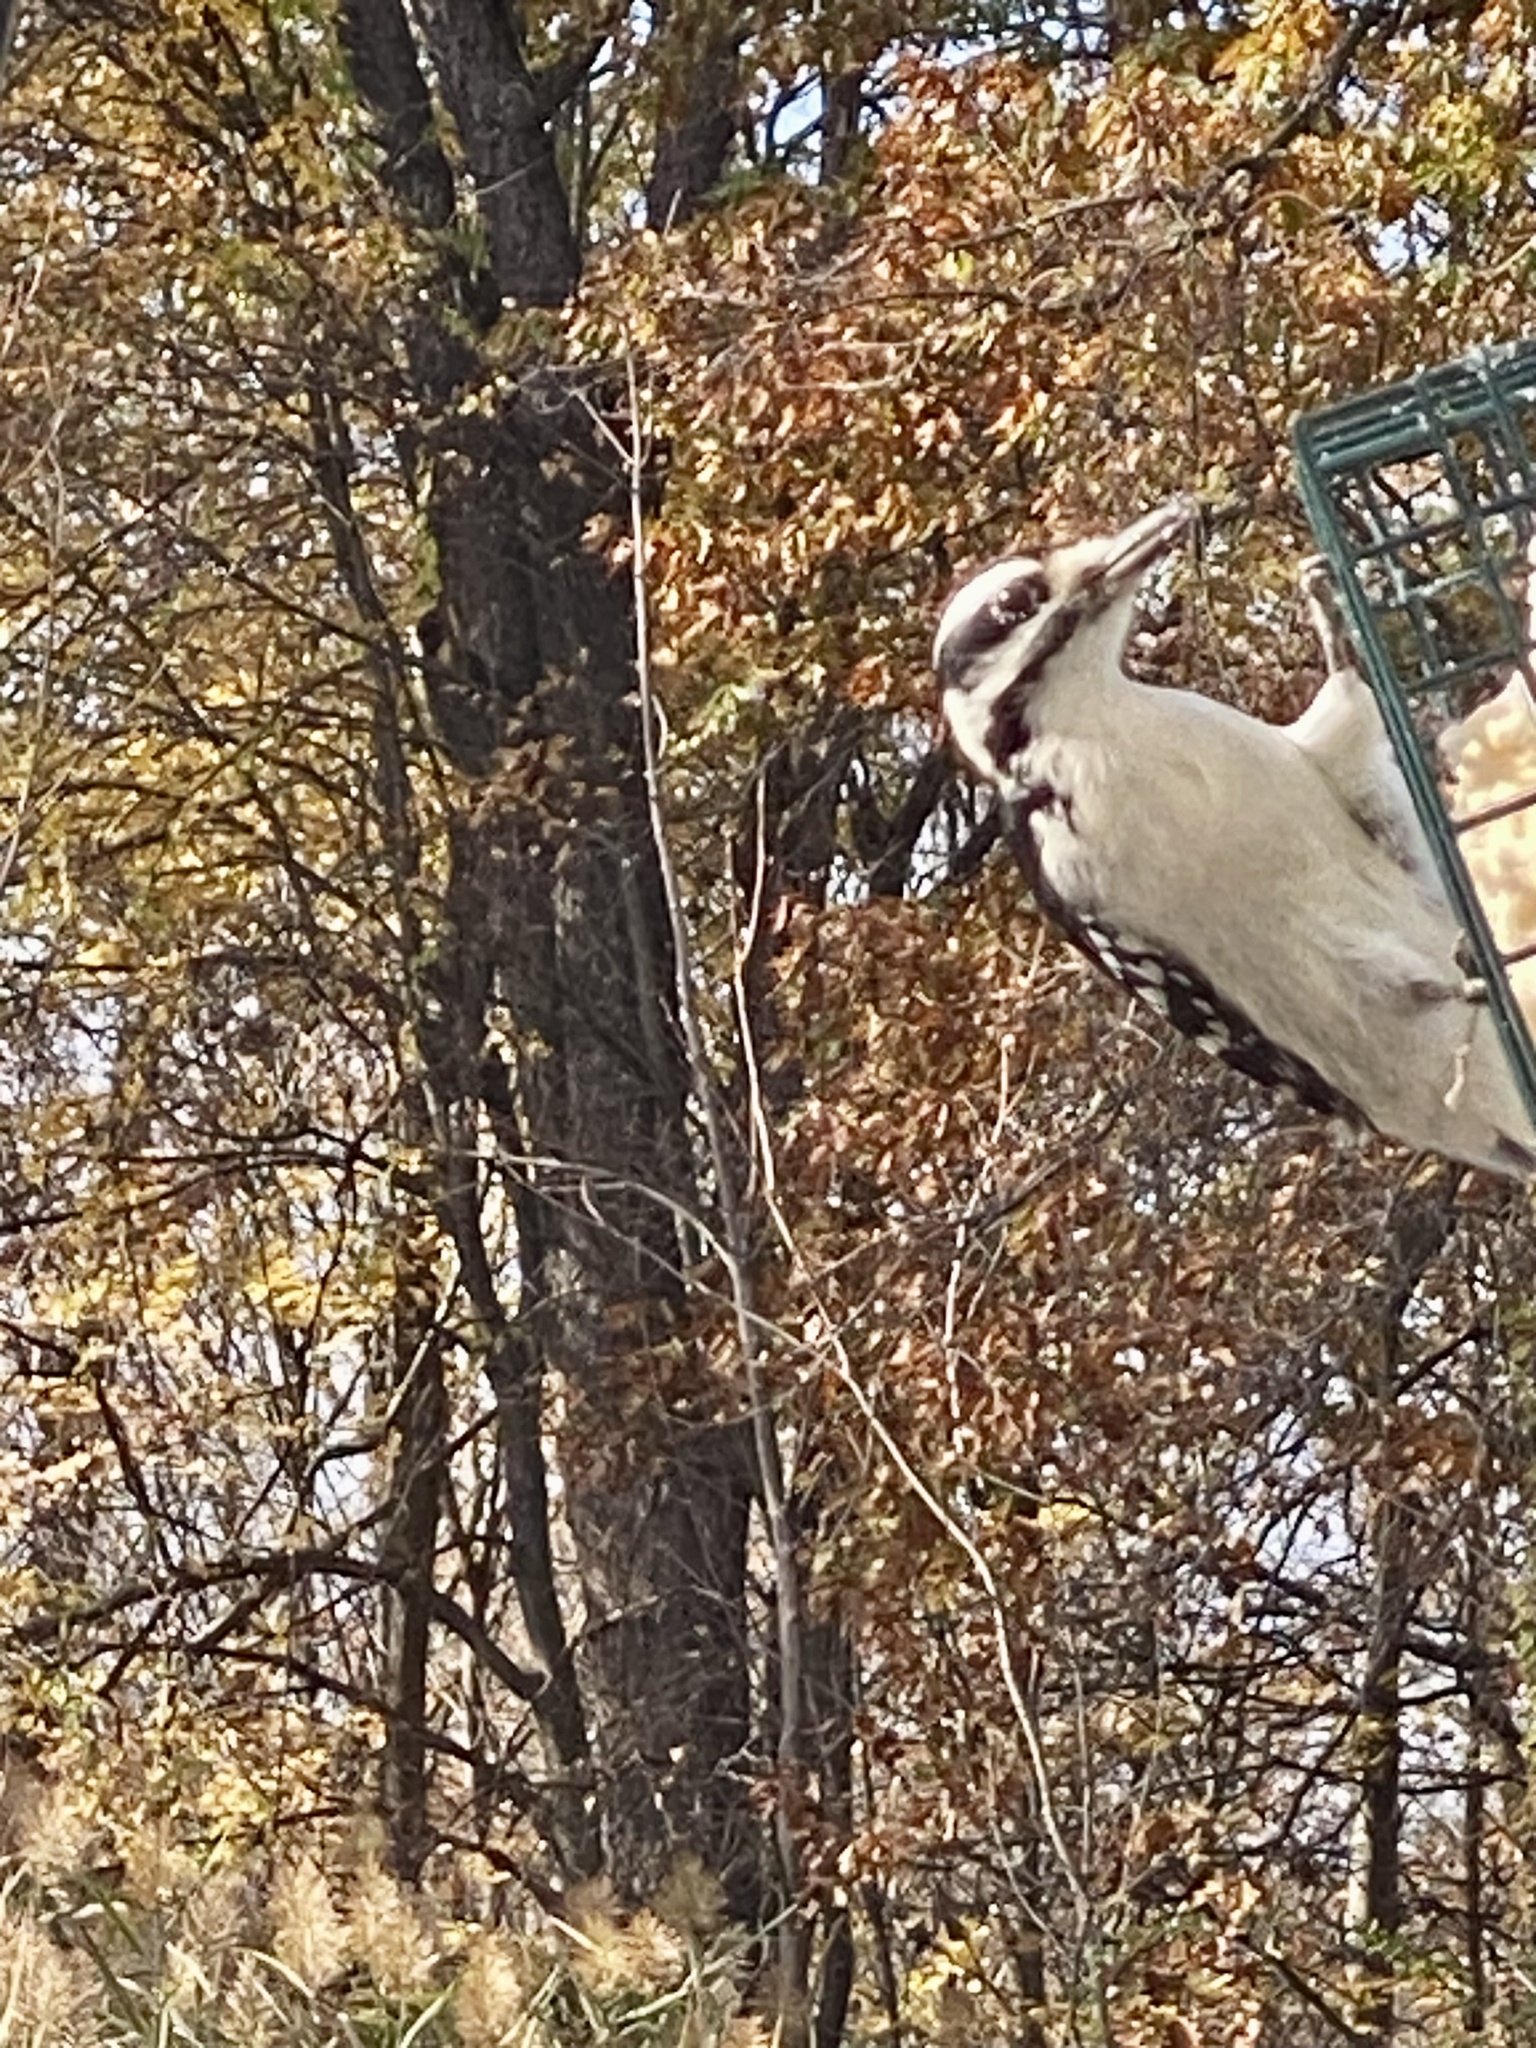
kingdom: Animalia
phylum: Chordata
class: Aves
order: Piciformes
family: Picidae
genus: Leuconotopicus
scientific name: Leuconotopicus villosus
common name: Hairy woodpecker
